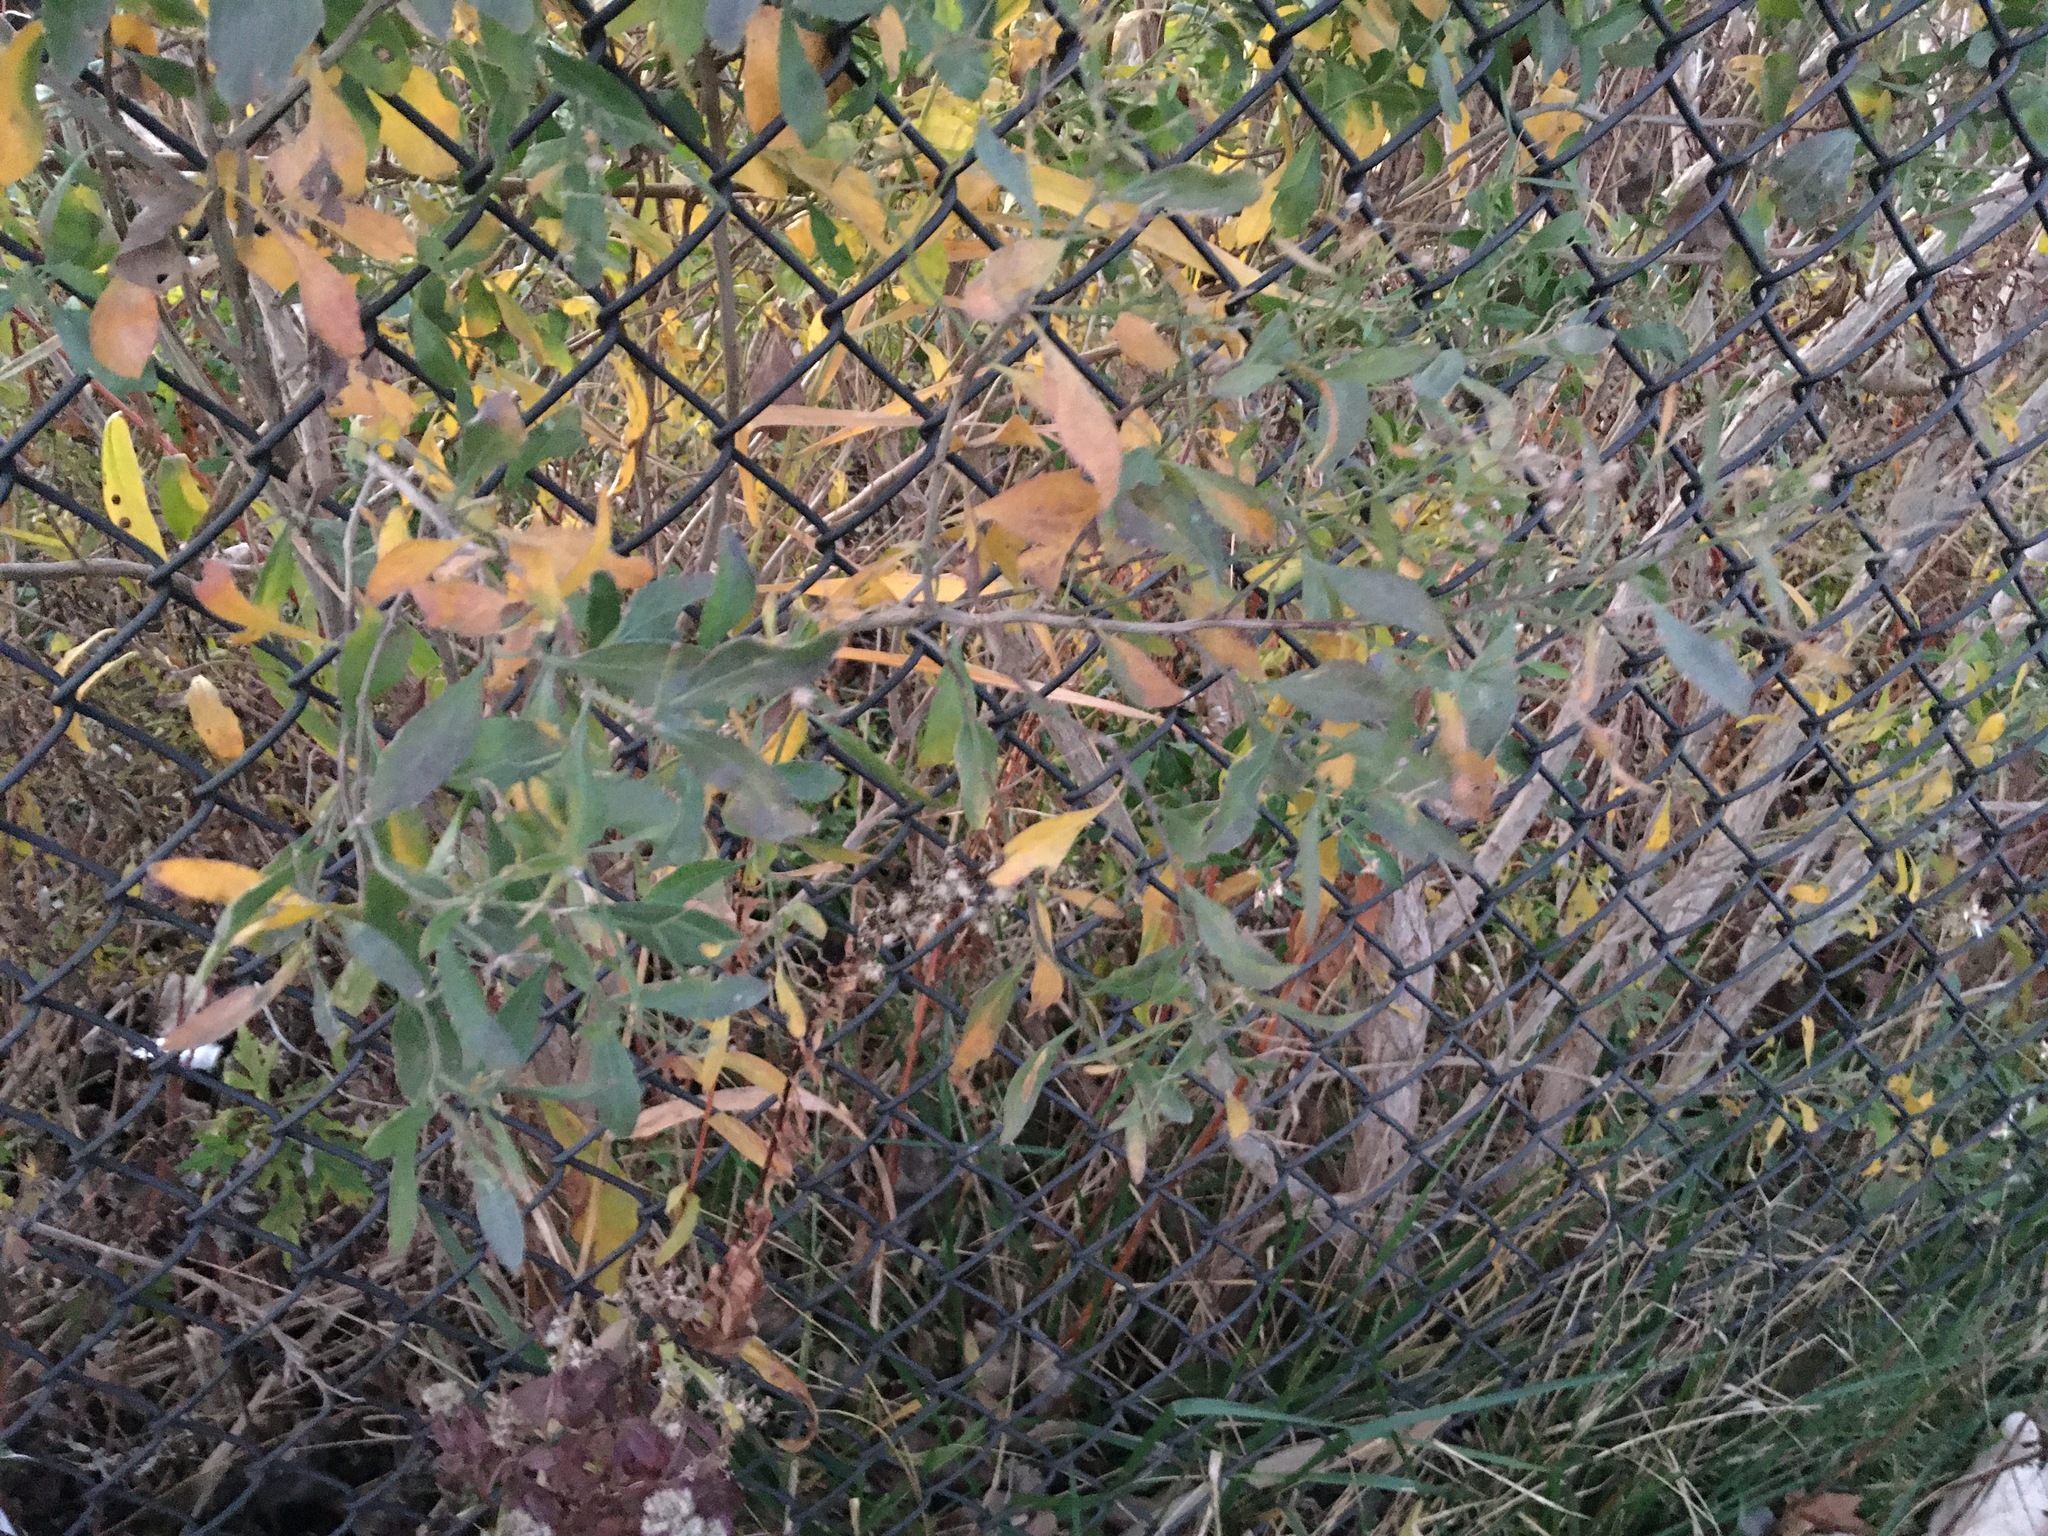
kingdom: Plantae
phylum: Tracheophyta
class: Magnoliopsida
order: Asterales
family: Asteraceae
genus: Baccharis
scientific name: Baccharis halimifolia
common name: Eastern baccharis
